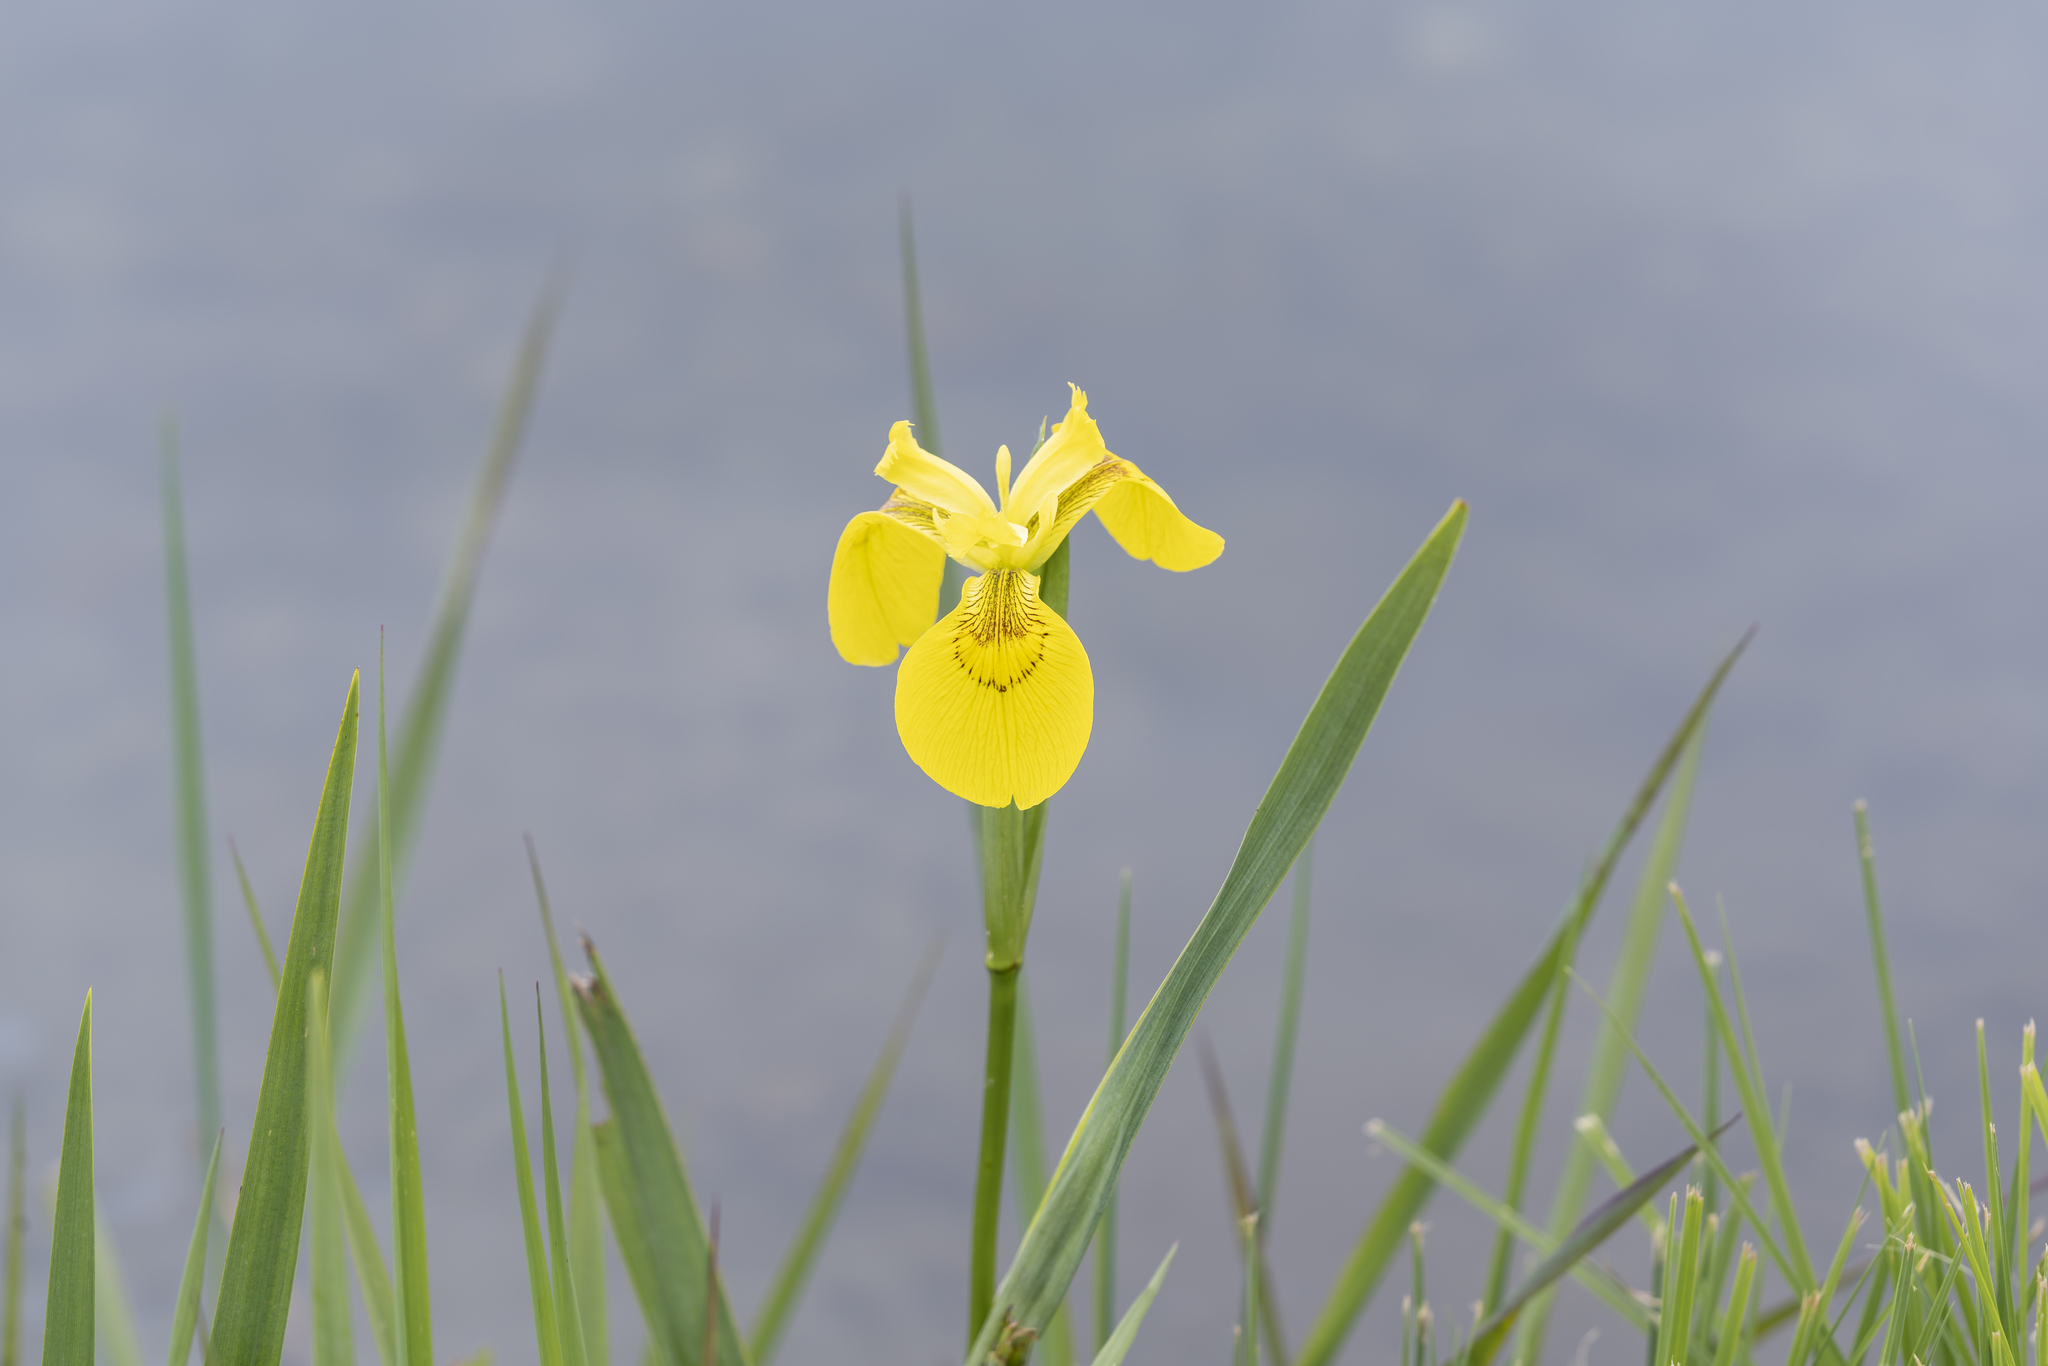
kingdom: Plantae
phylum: Tracheophyta
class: Liliopsida
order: Asparagales
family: Iridaceae
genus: Iris
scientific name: Iris pseudacorus
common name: Yellow flag
